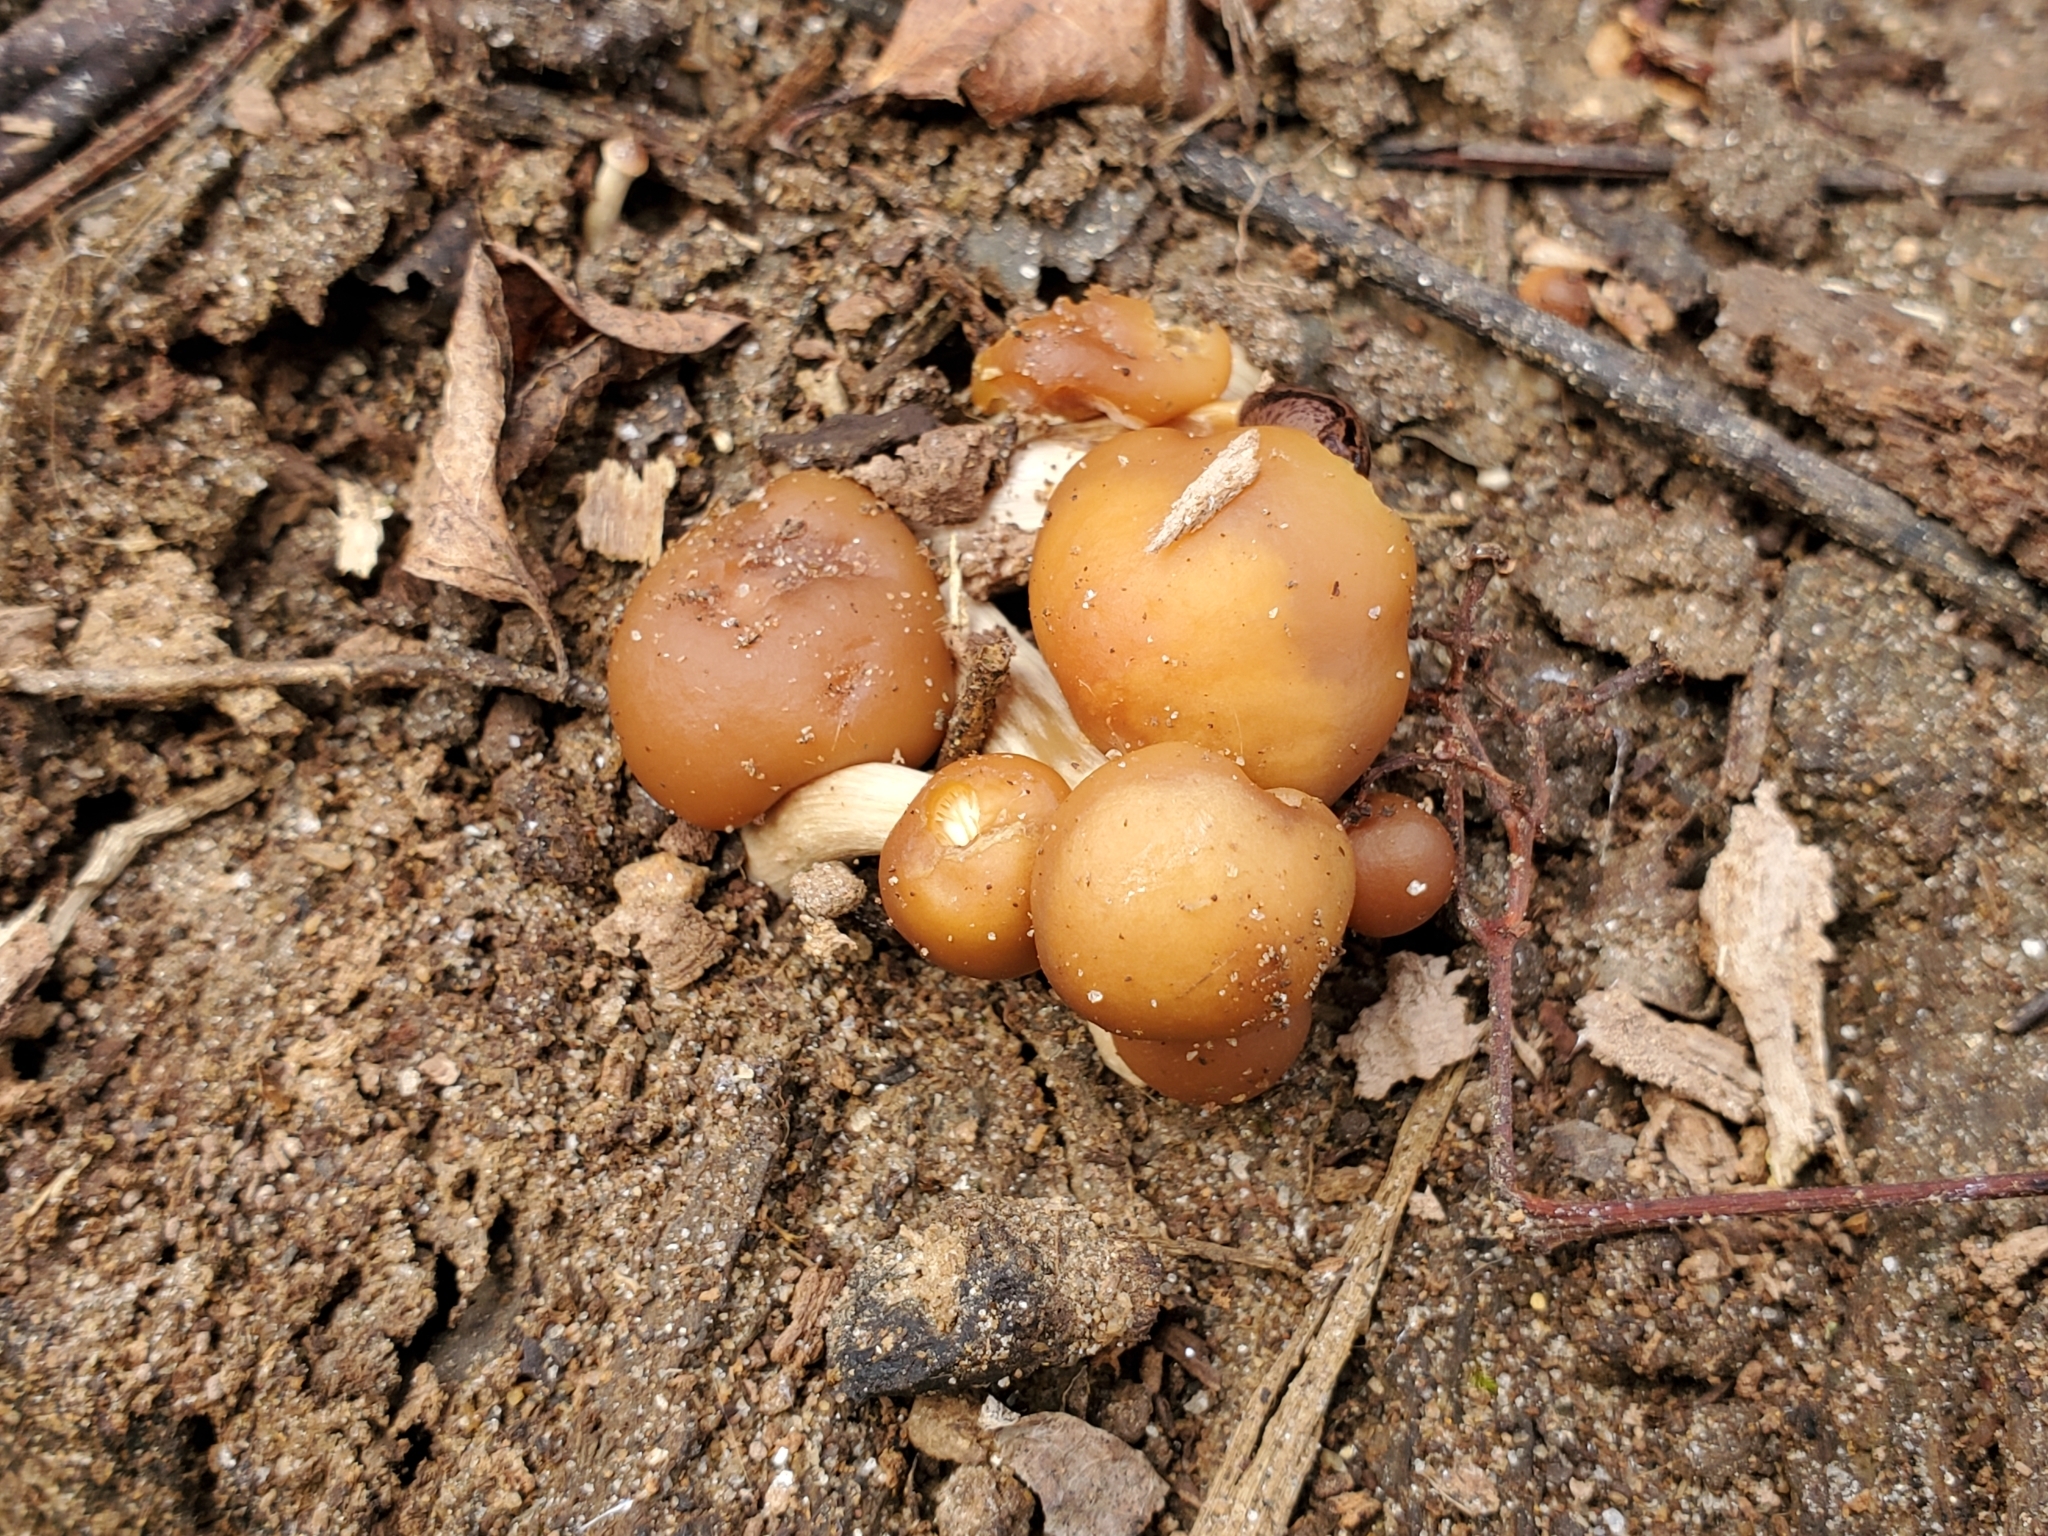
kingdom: Fungi
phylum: Basidiomycota
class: Agaricomycetes
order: Agaricales
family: Strophariaceae
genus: Kuehneromyces
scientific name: Kuehneromyces marginellus
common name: Sheathed woodtuft
